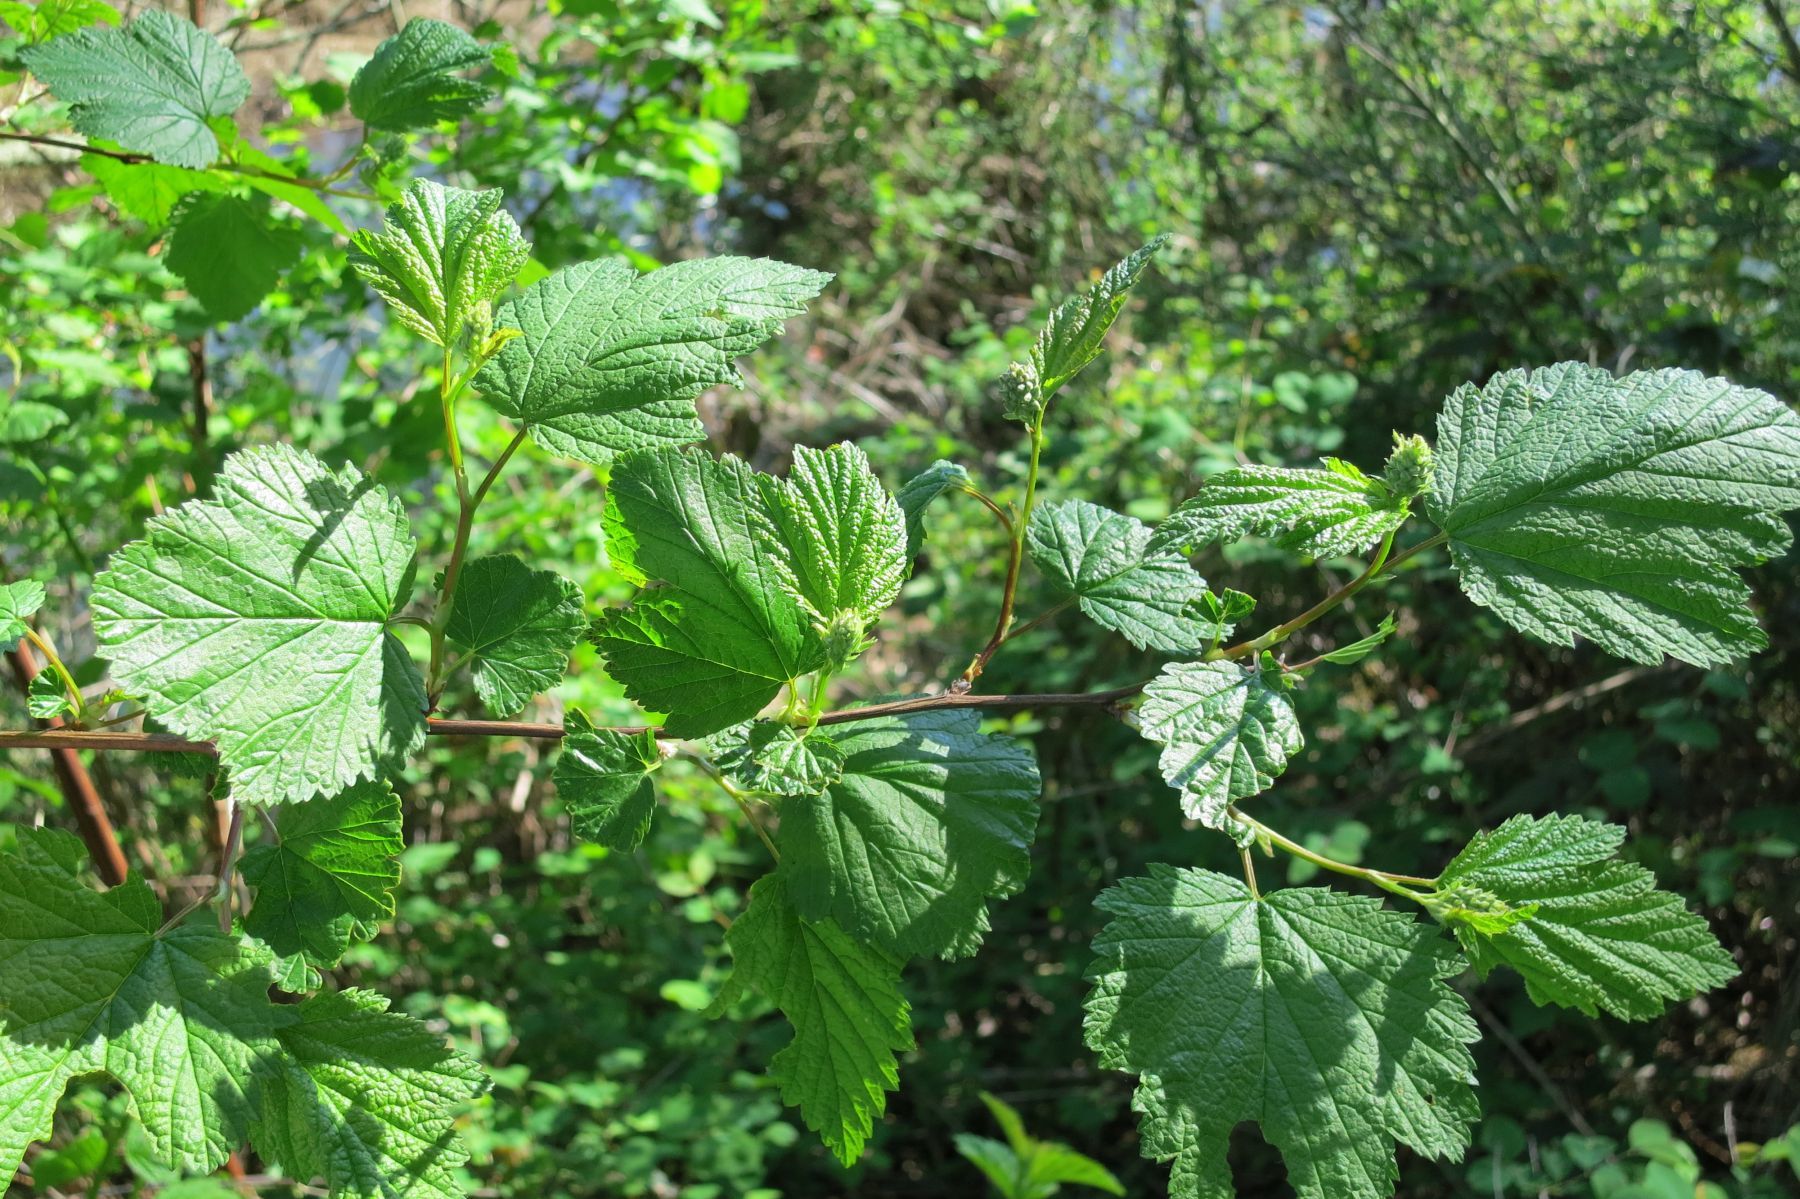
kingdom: Plantae
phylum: Tracheophyta
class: Magnoliopsida
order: Rosales
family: Rosaceae
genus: Physocarpus
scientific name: Physocarpus capitatus
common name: Pacific ninebark
